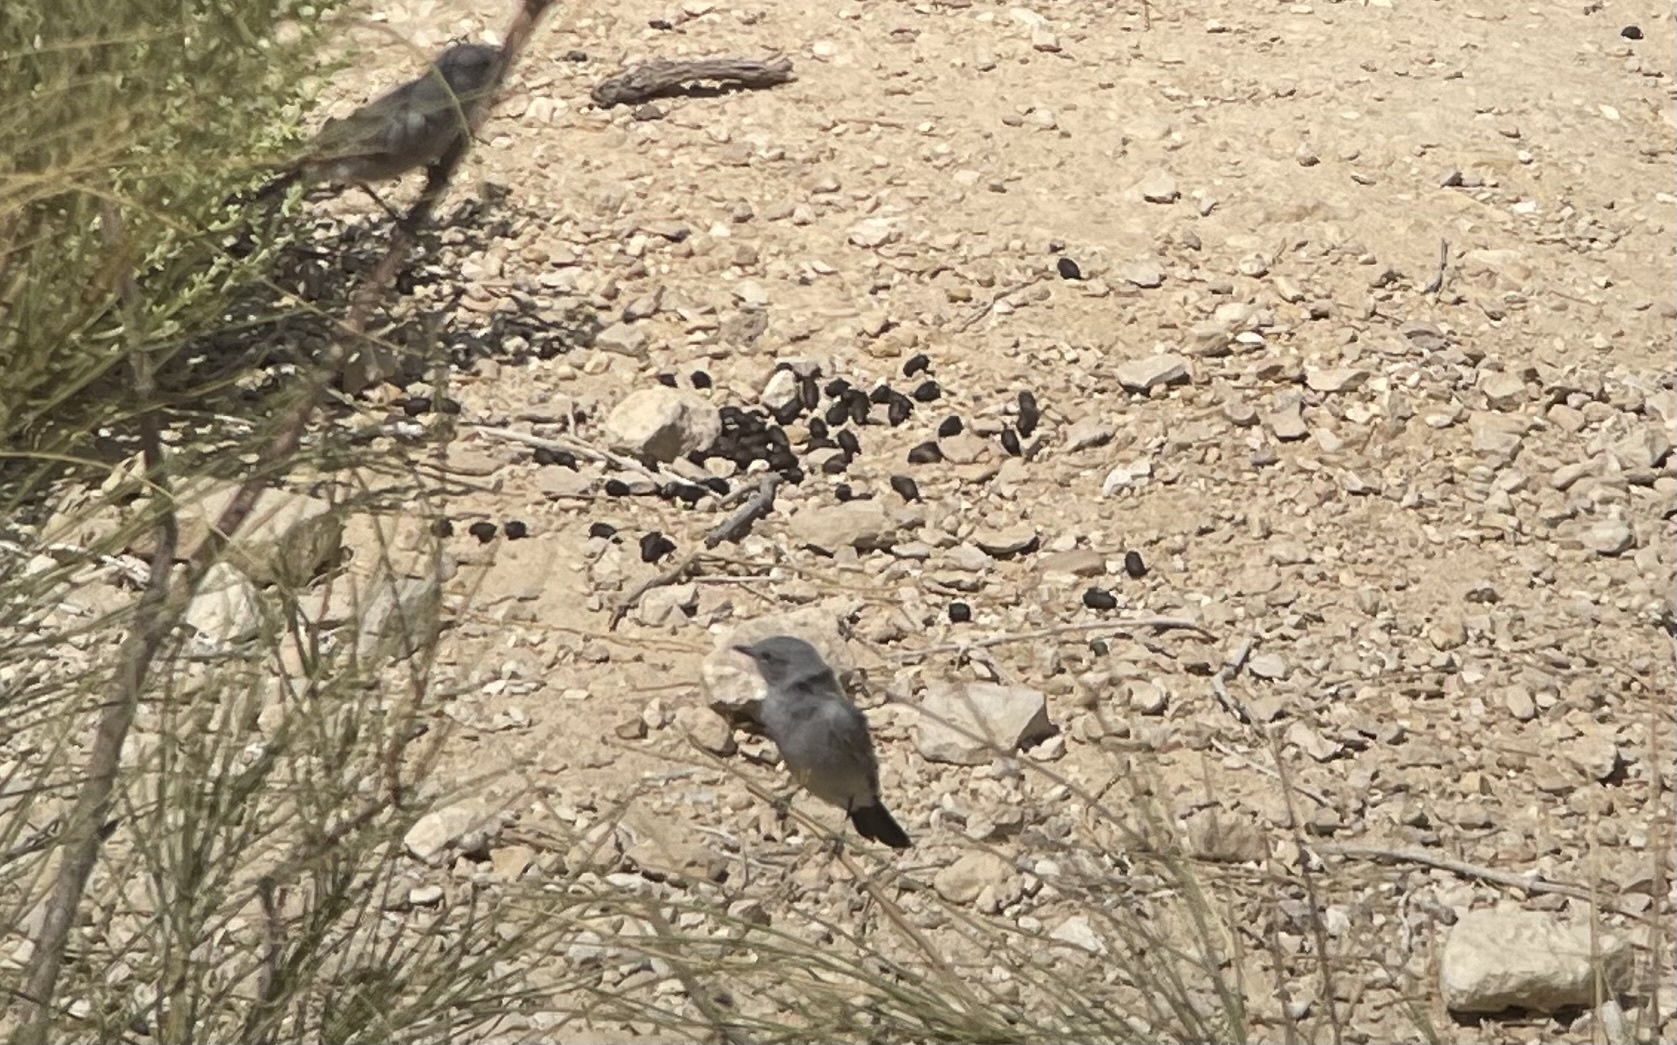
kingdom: Animalia
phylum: Chordata
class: Aves
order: Passeriformes
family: Muscicapidae
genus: Oenanthe
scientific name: Oenanthe melanura
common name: Blackstart
